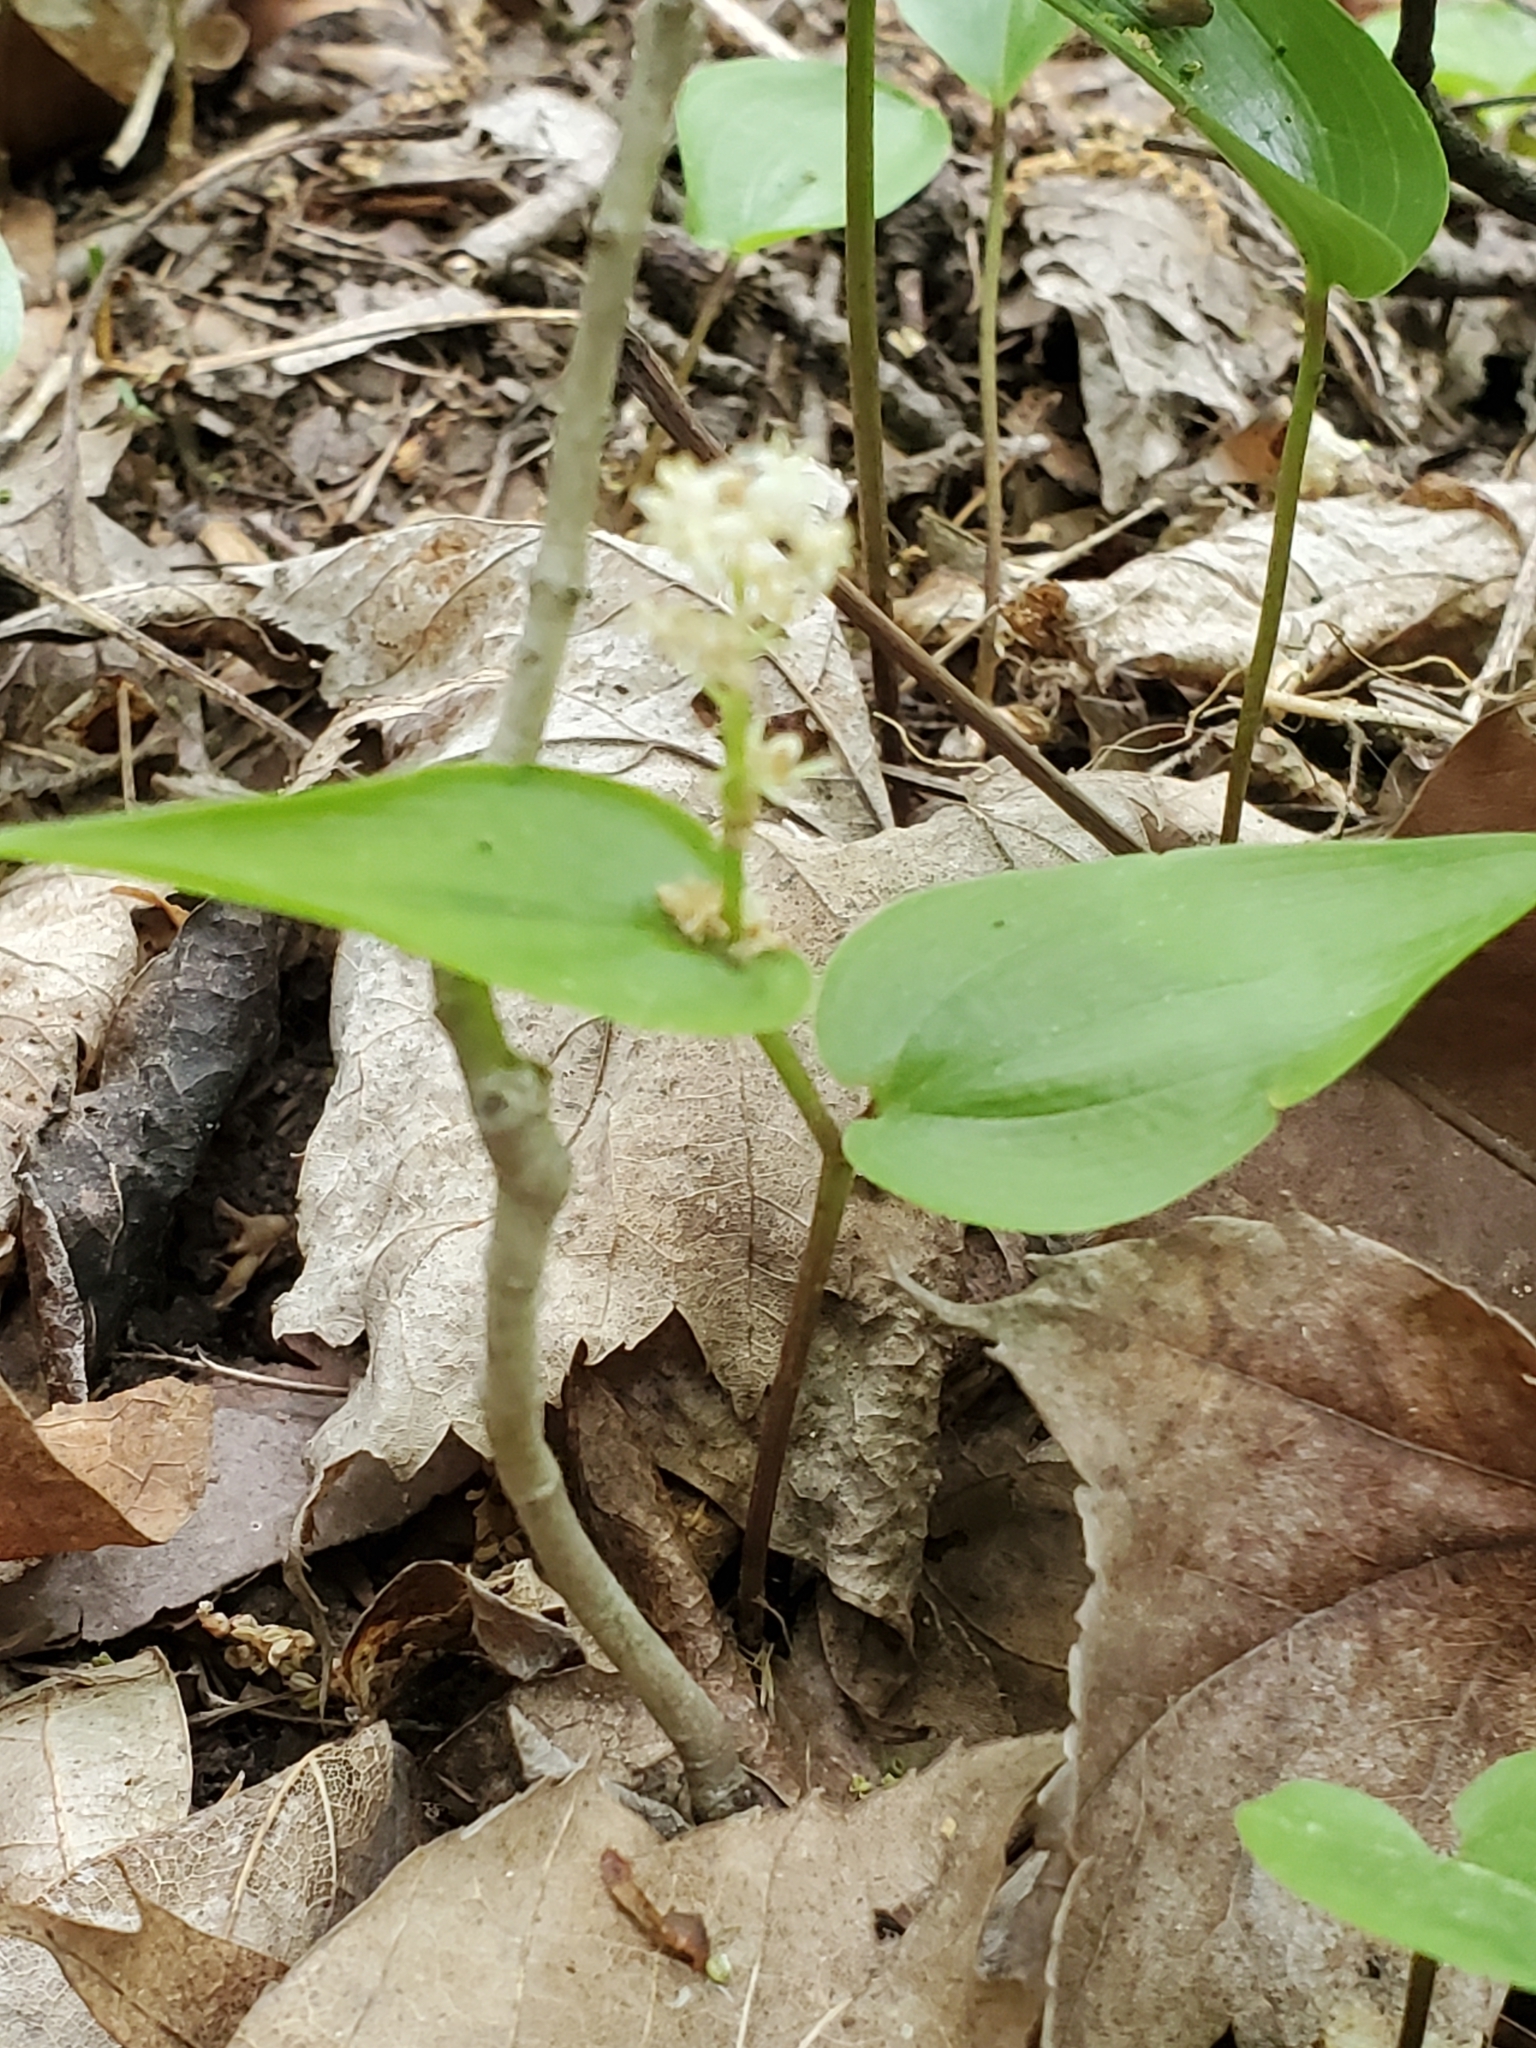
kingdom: Plantae
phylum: Tracheophyta
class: Liliopsida
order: Asparagales
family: Asparagaceae
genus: Maianthemum
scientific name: Maianthemum canadense
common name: False lily-of-the-valley
